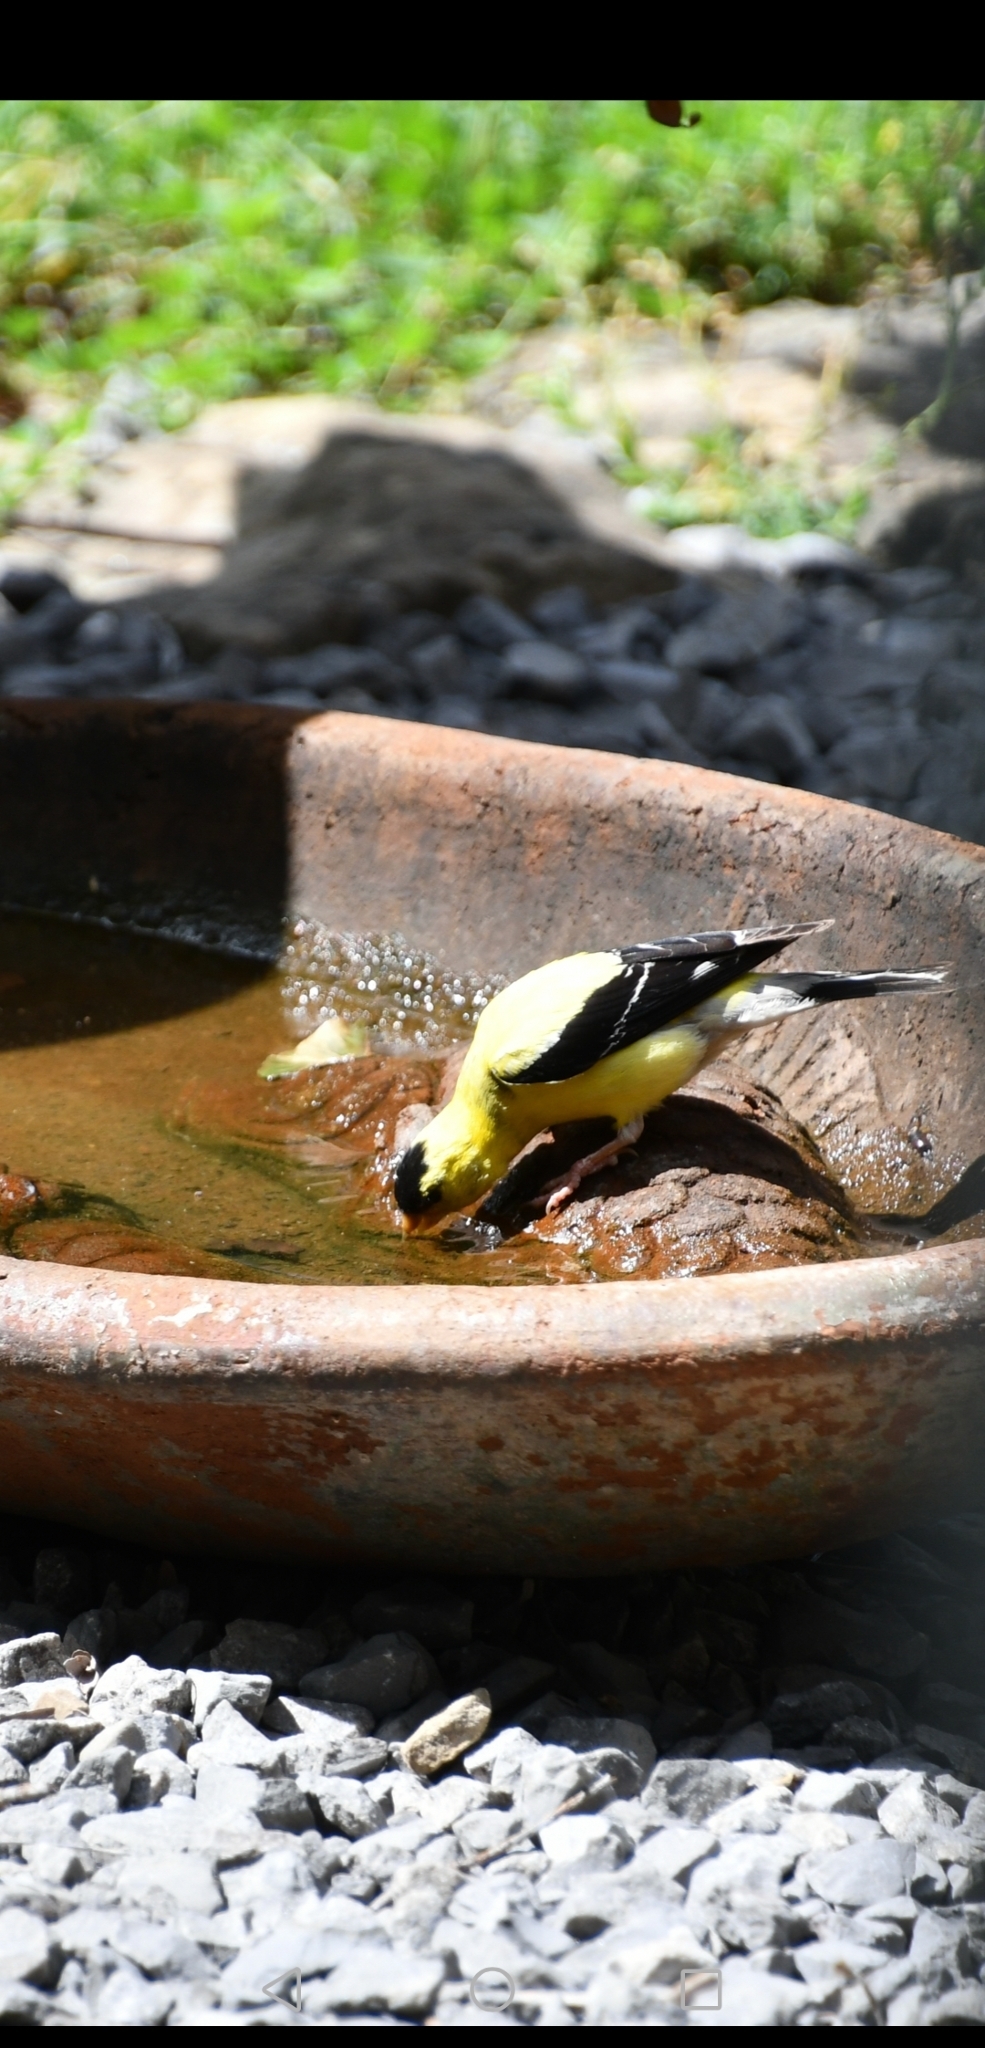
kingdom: Animalia
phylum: Chordata
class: Aves
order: Passeriformes
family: Fringillidae
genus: Spinus
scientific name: Spinus tristis
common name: American goldfinch
